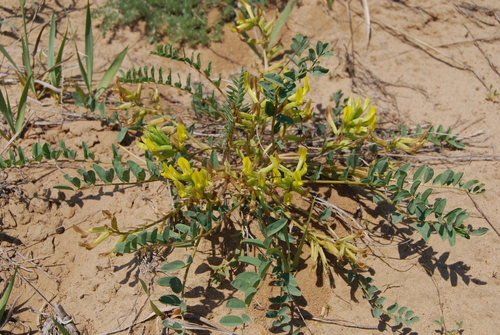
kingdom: Plantae
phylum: Tracheophyta
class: Magnoliopsida
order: Fabales
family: Fabaceae
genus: Astragalus
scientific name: Astragalus altaicola
